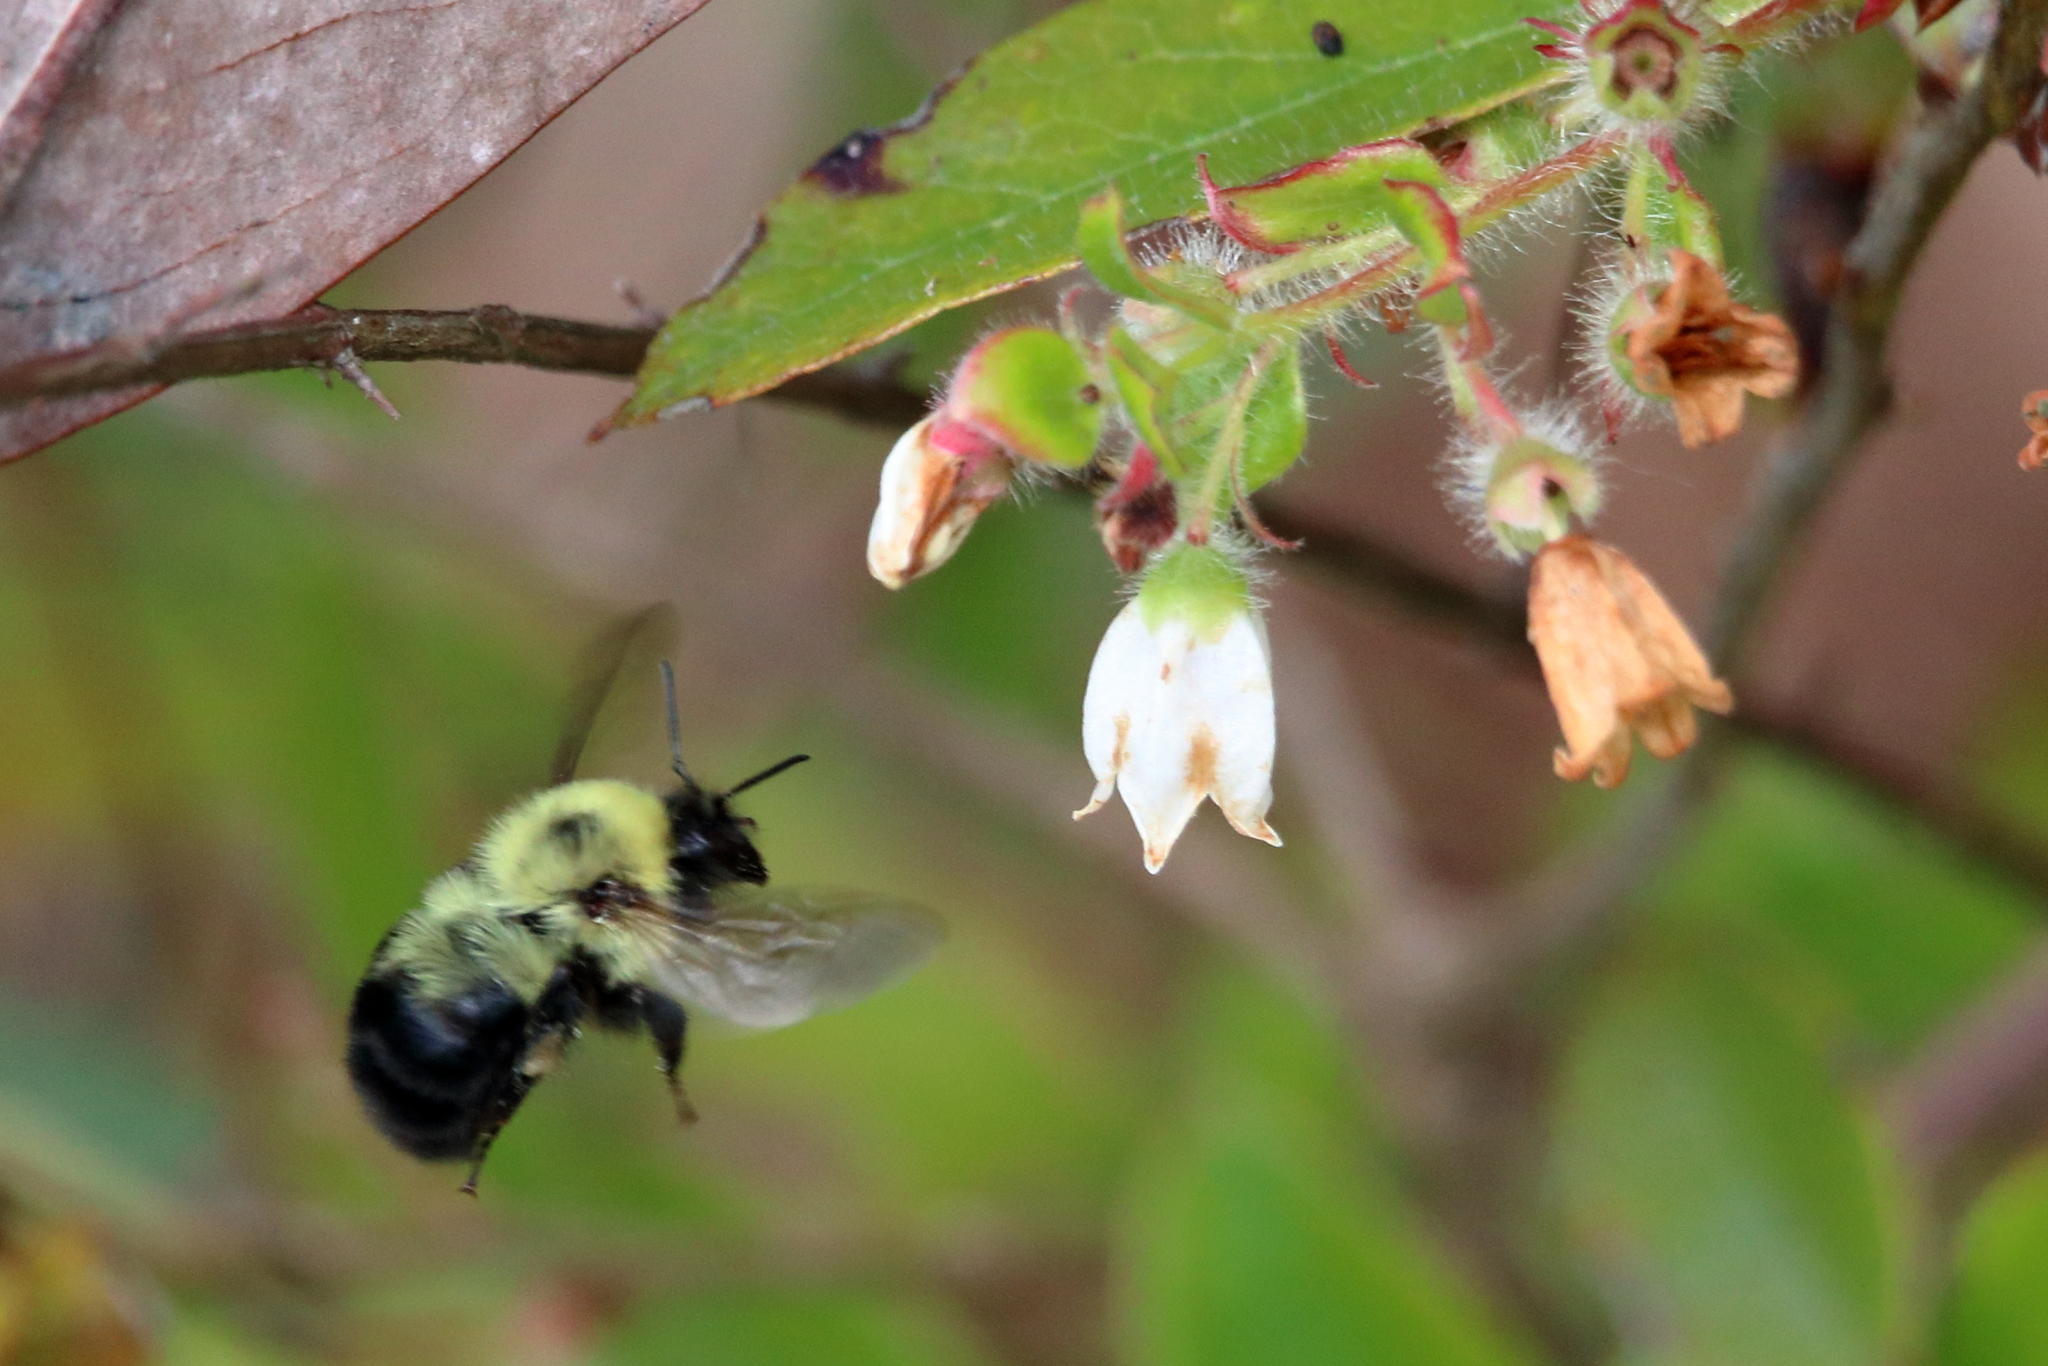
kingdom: Animalia
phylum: Arthropoda
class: Insecta
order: Hymenoptera
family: Apidae
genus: Bombus
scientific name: Bombus bimaculatus
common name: Two-spotted bumble bee
